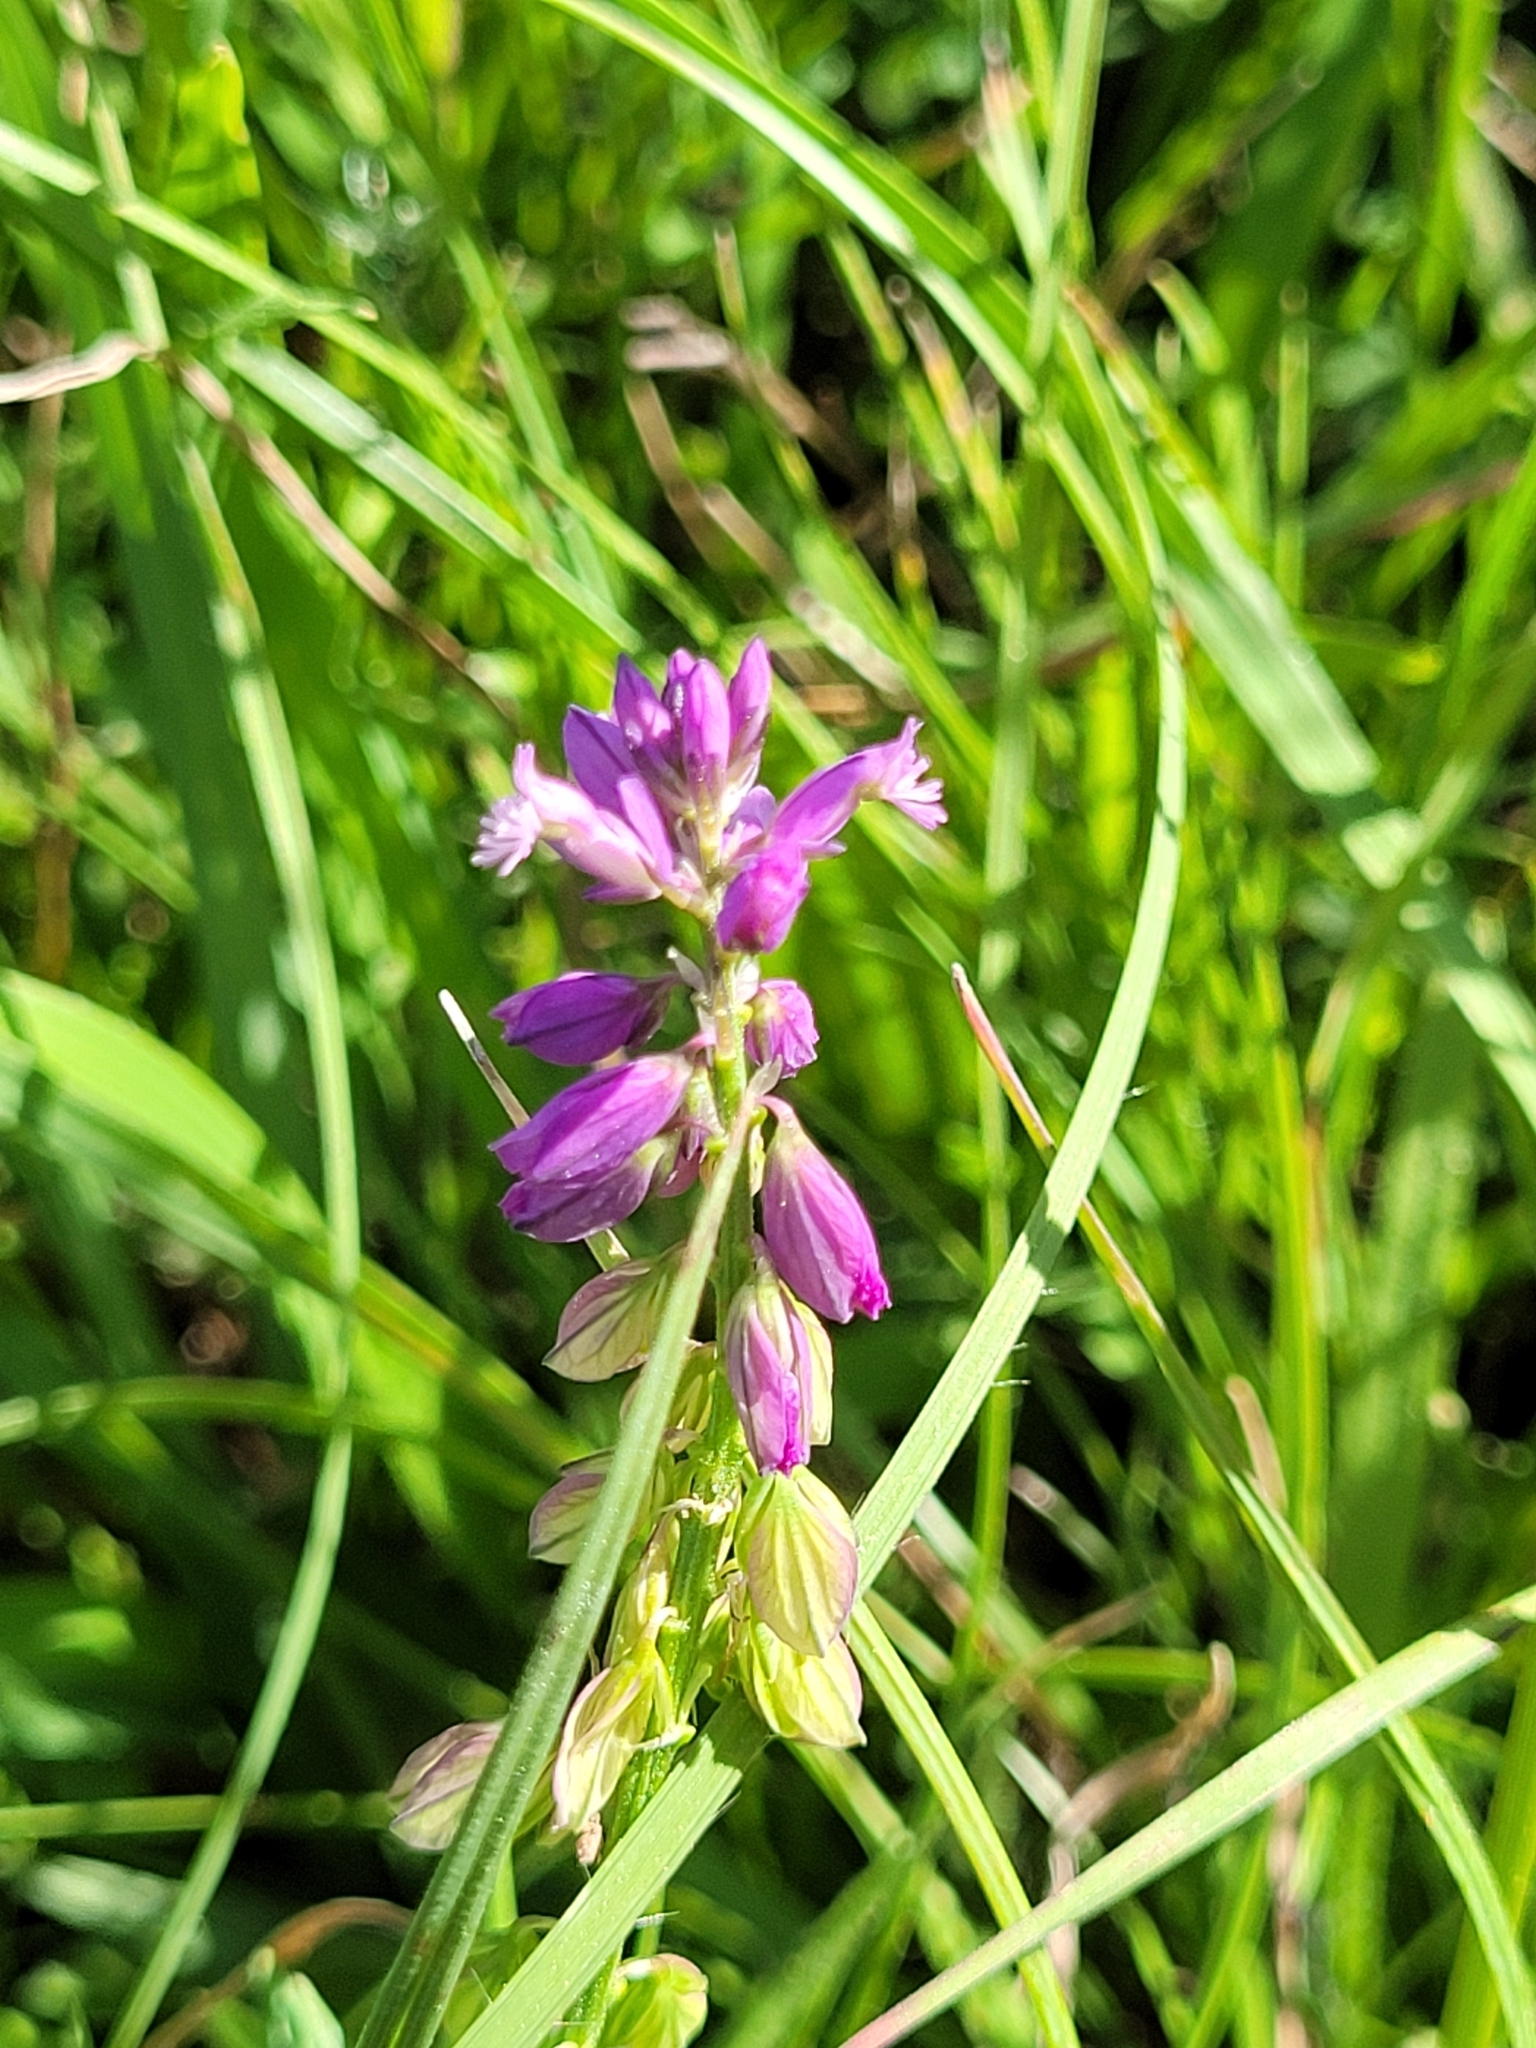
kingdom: Plantae
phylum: Tracheophyta
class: Magnoliopsida
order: Fabales
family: Polygalaceae
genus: Polygala
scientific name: Polygala comosa
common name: Tufted milkwort
